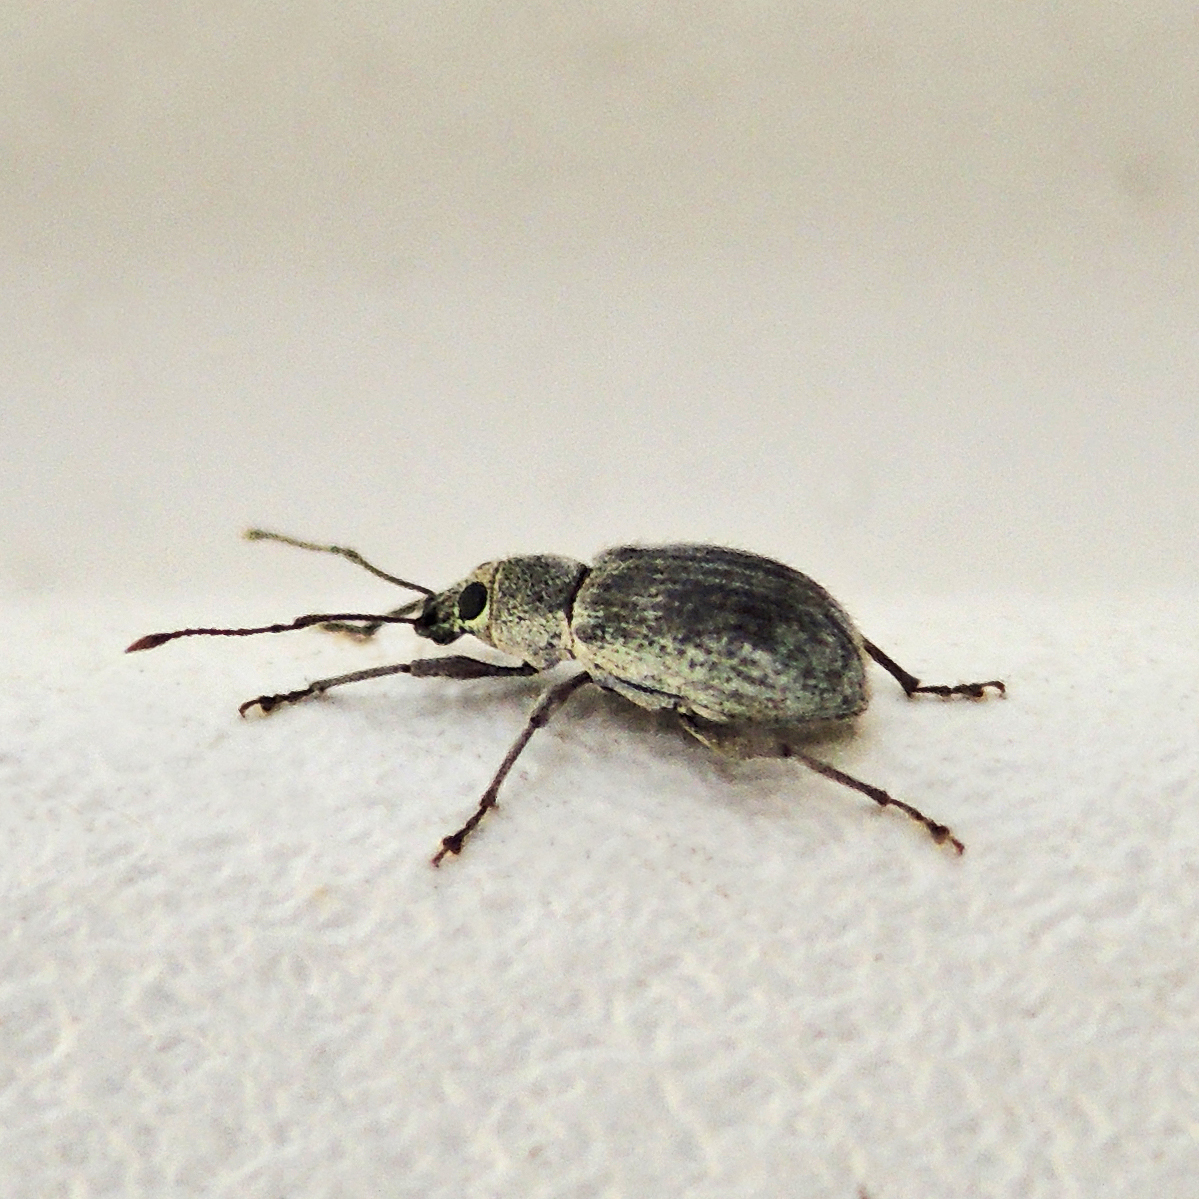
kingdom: Animalia
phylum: Arthropoda
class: Insecta
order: Coleoptera
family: Curculionidae
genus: Cyrtepistomus
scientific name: Cyrtepistomus castaneus
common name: Weevil
